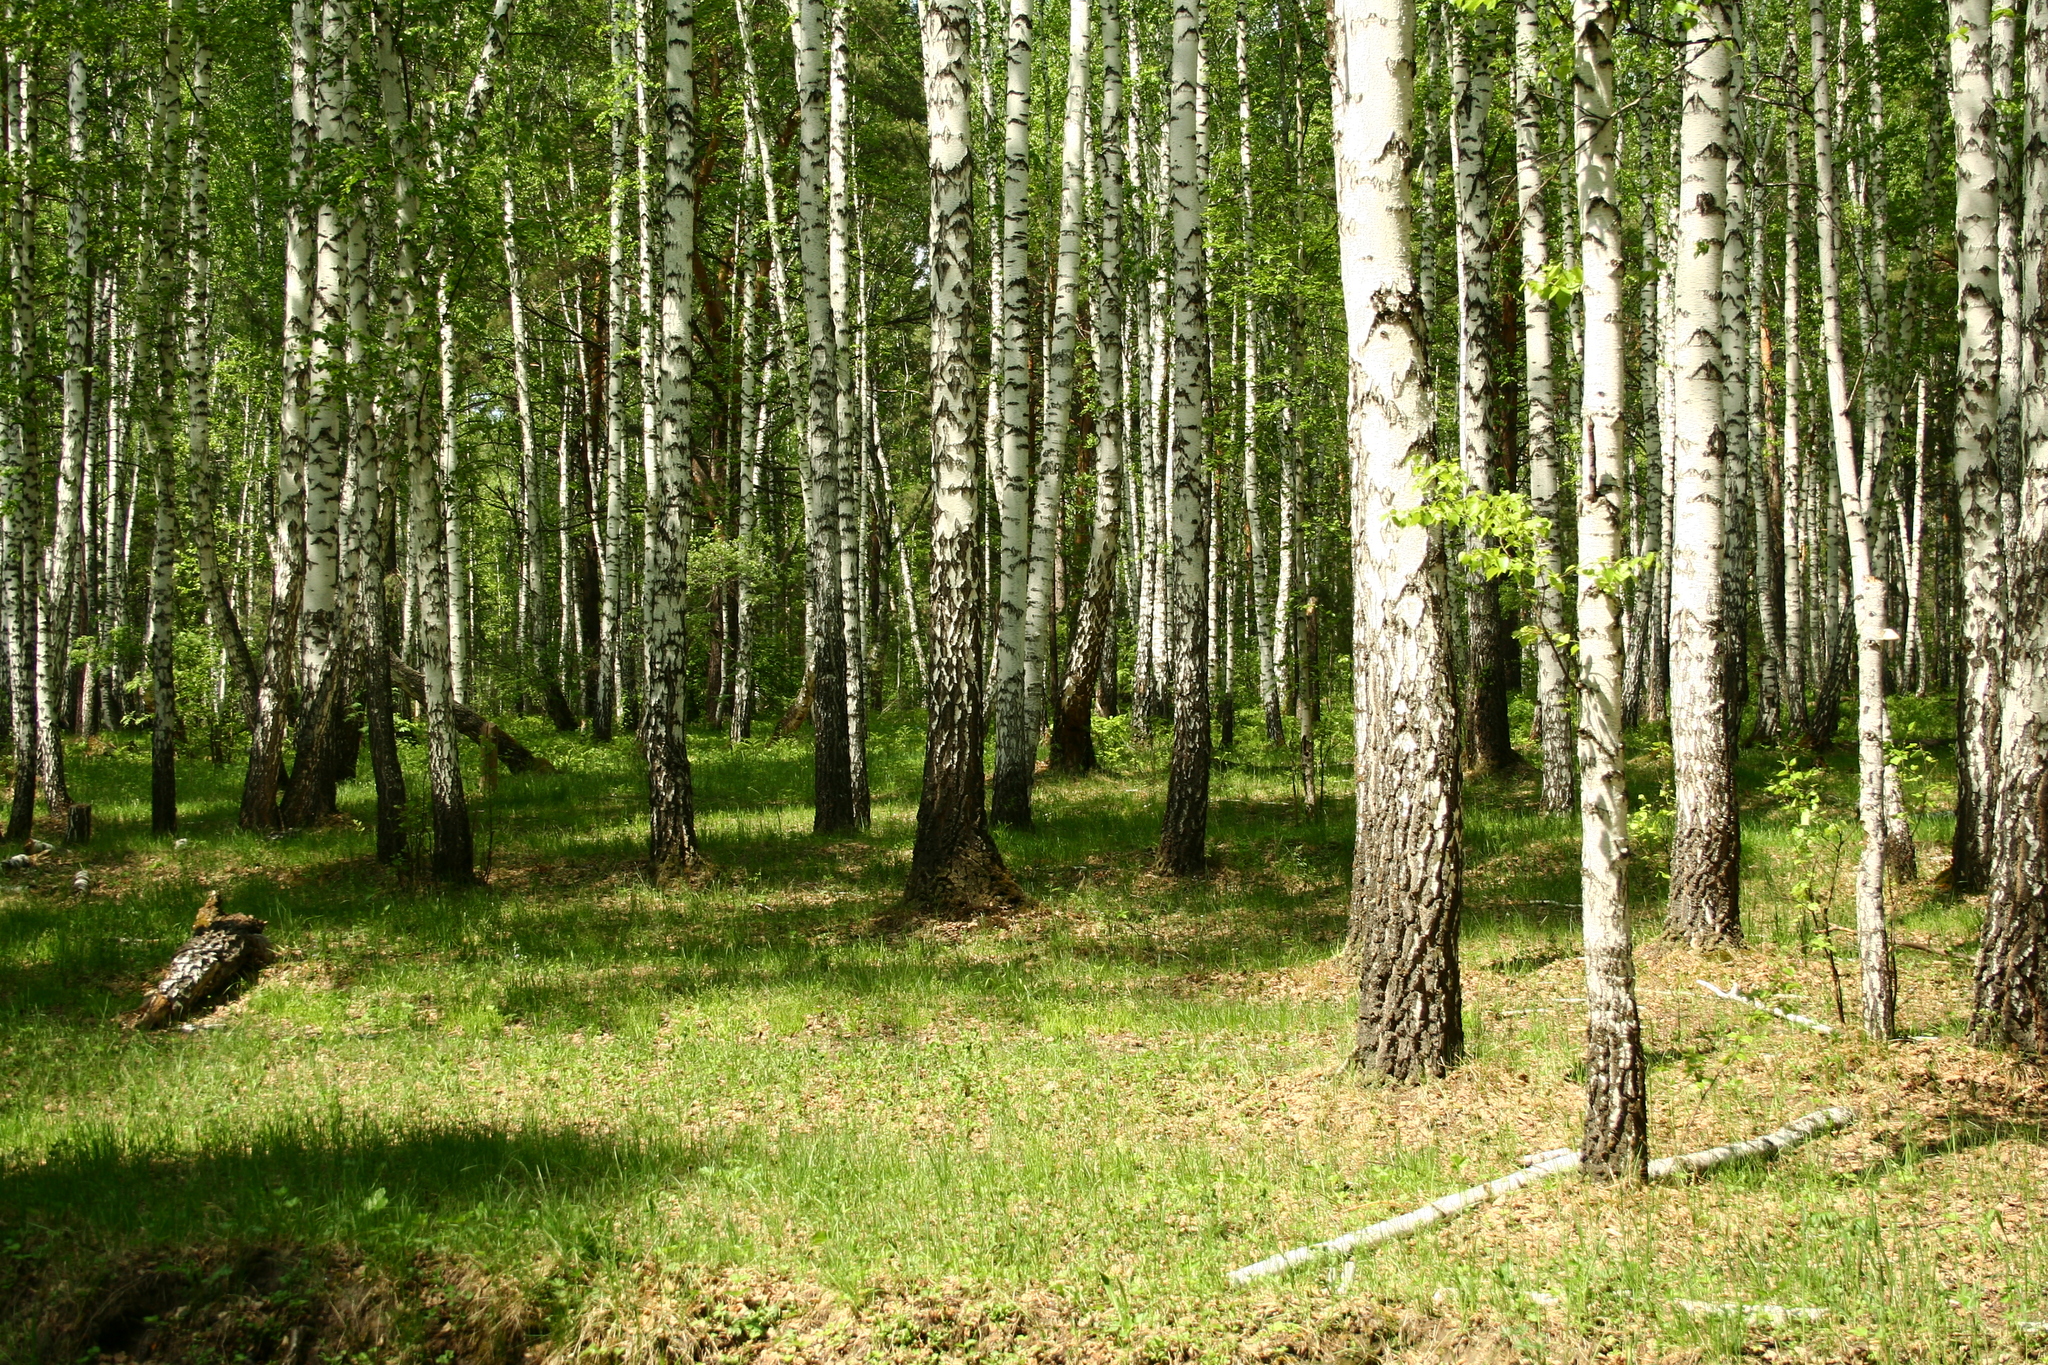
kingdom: Plantae
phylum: Tracheophyta
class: Magnoliopsida
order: Fagales
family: Betulaceae
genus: Betula
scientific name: Betula pendula
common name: Silver birch
